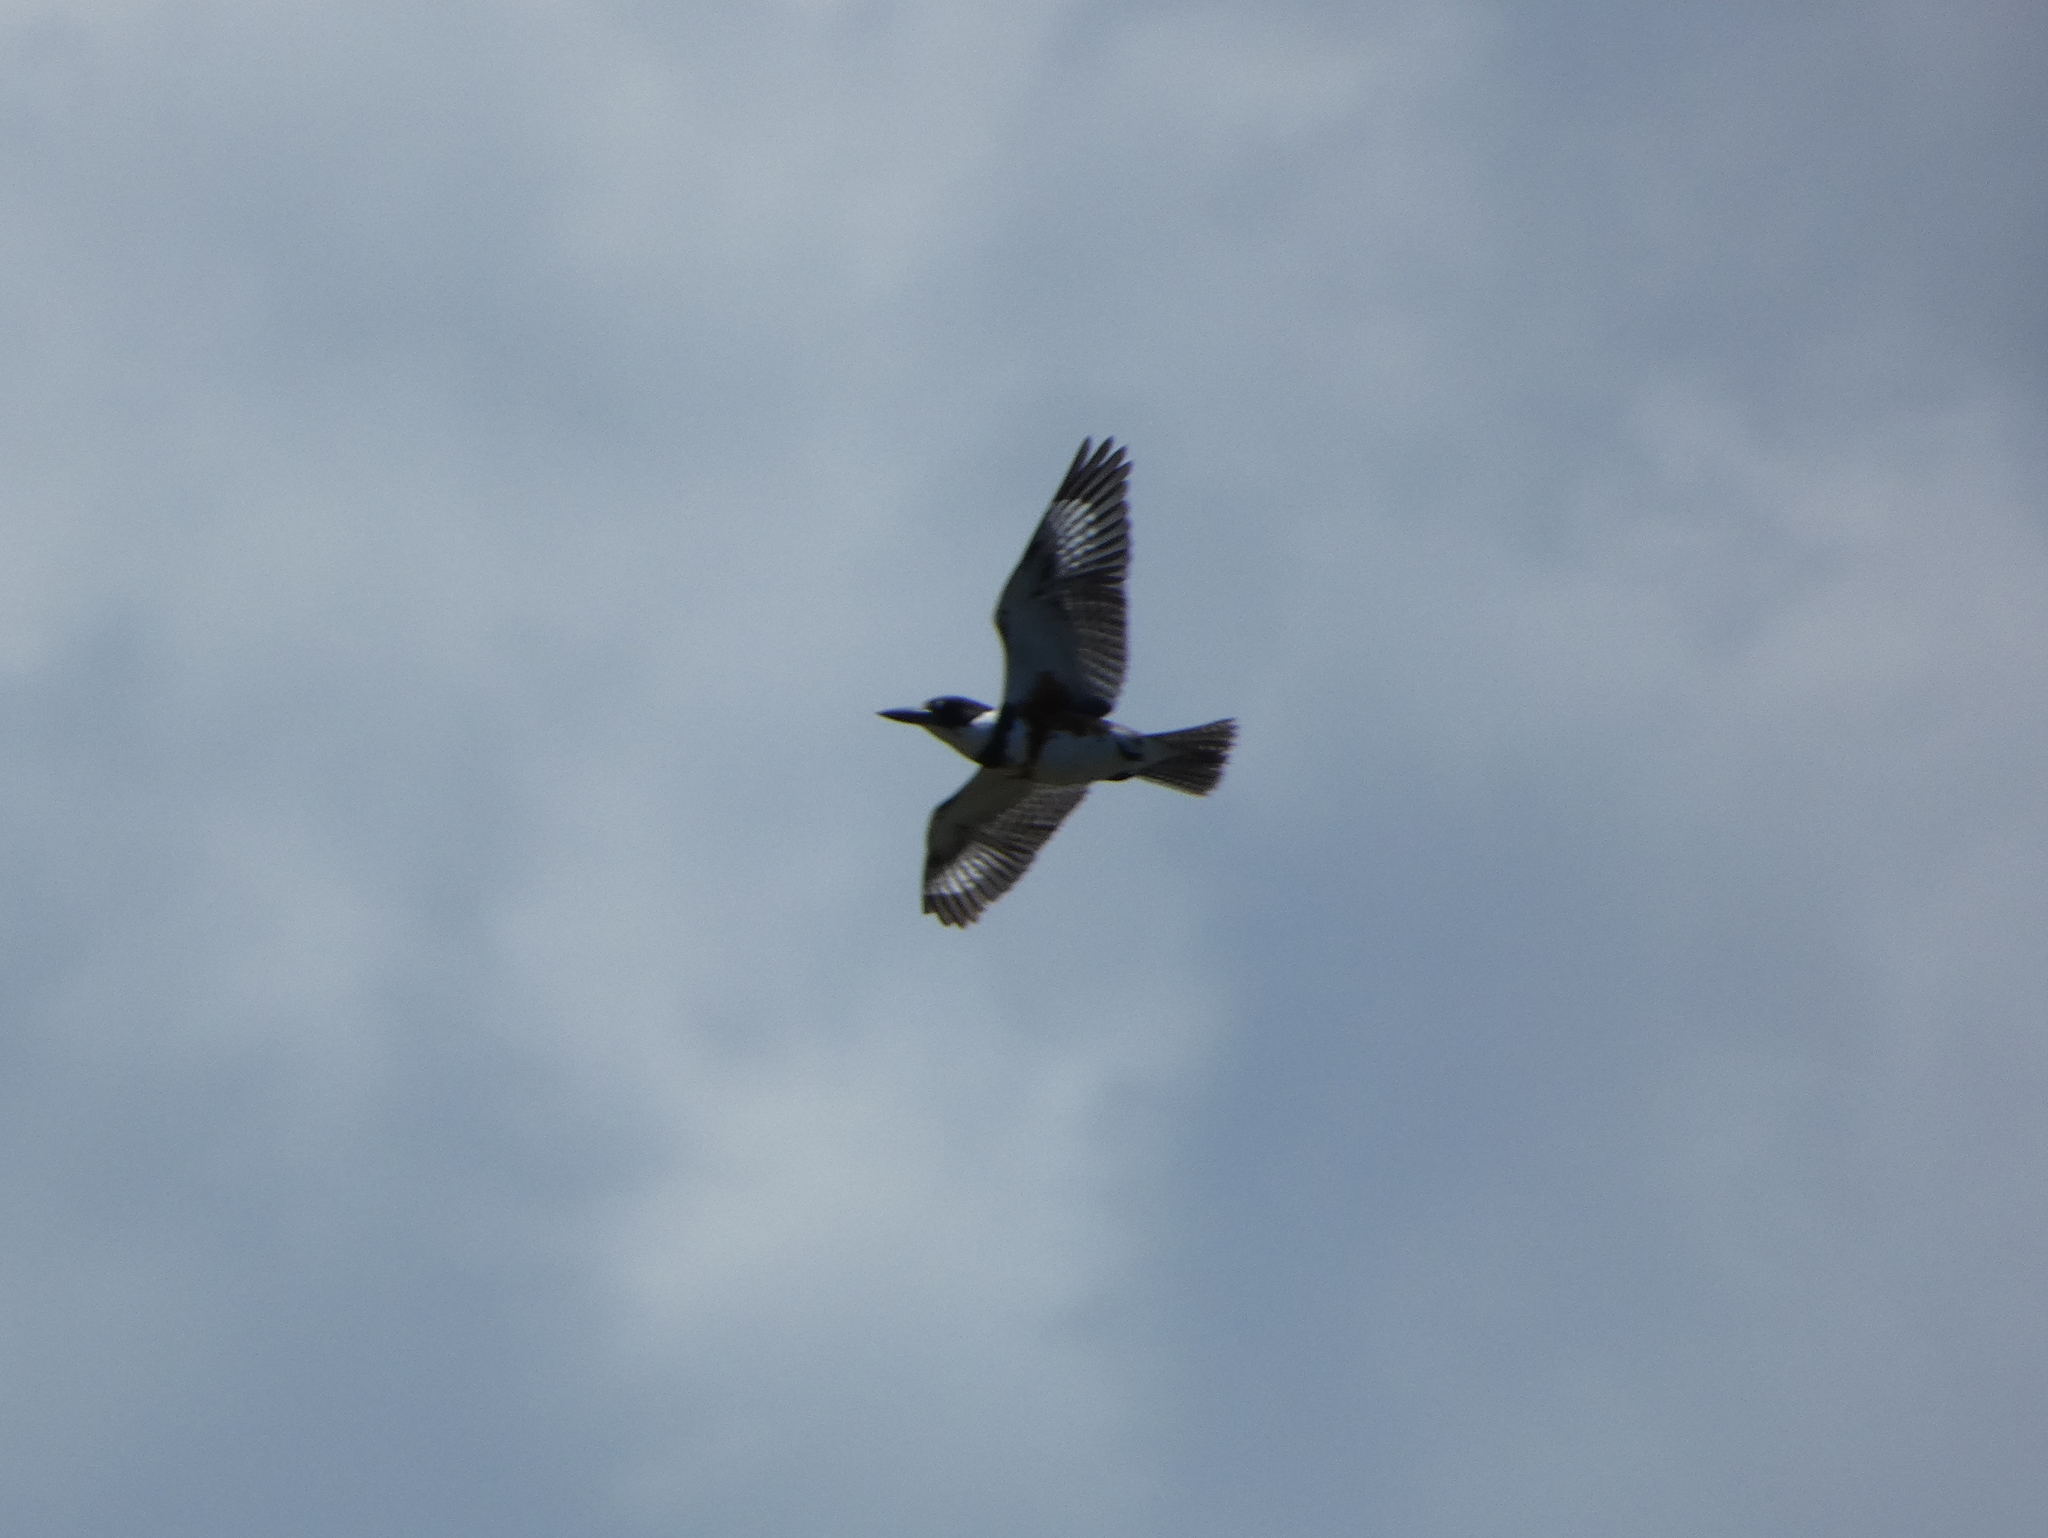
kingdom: Animalia
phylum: Chordata
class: Aves
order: Coraciiformes
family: Alcedinidae
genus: Megaceryle
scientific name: Megaceryle alcyon
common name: Belted kingfisher
